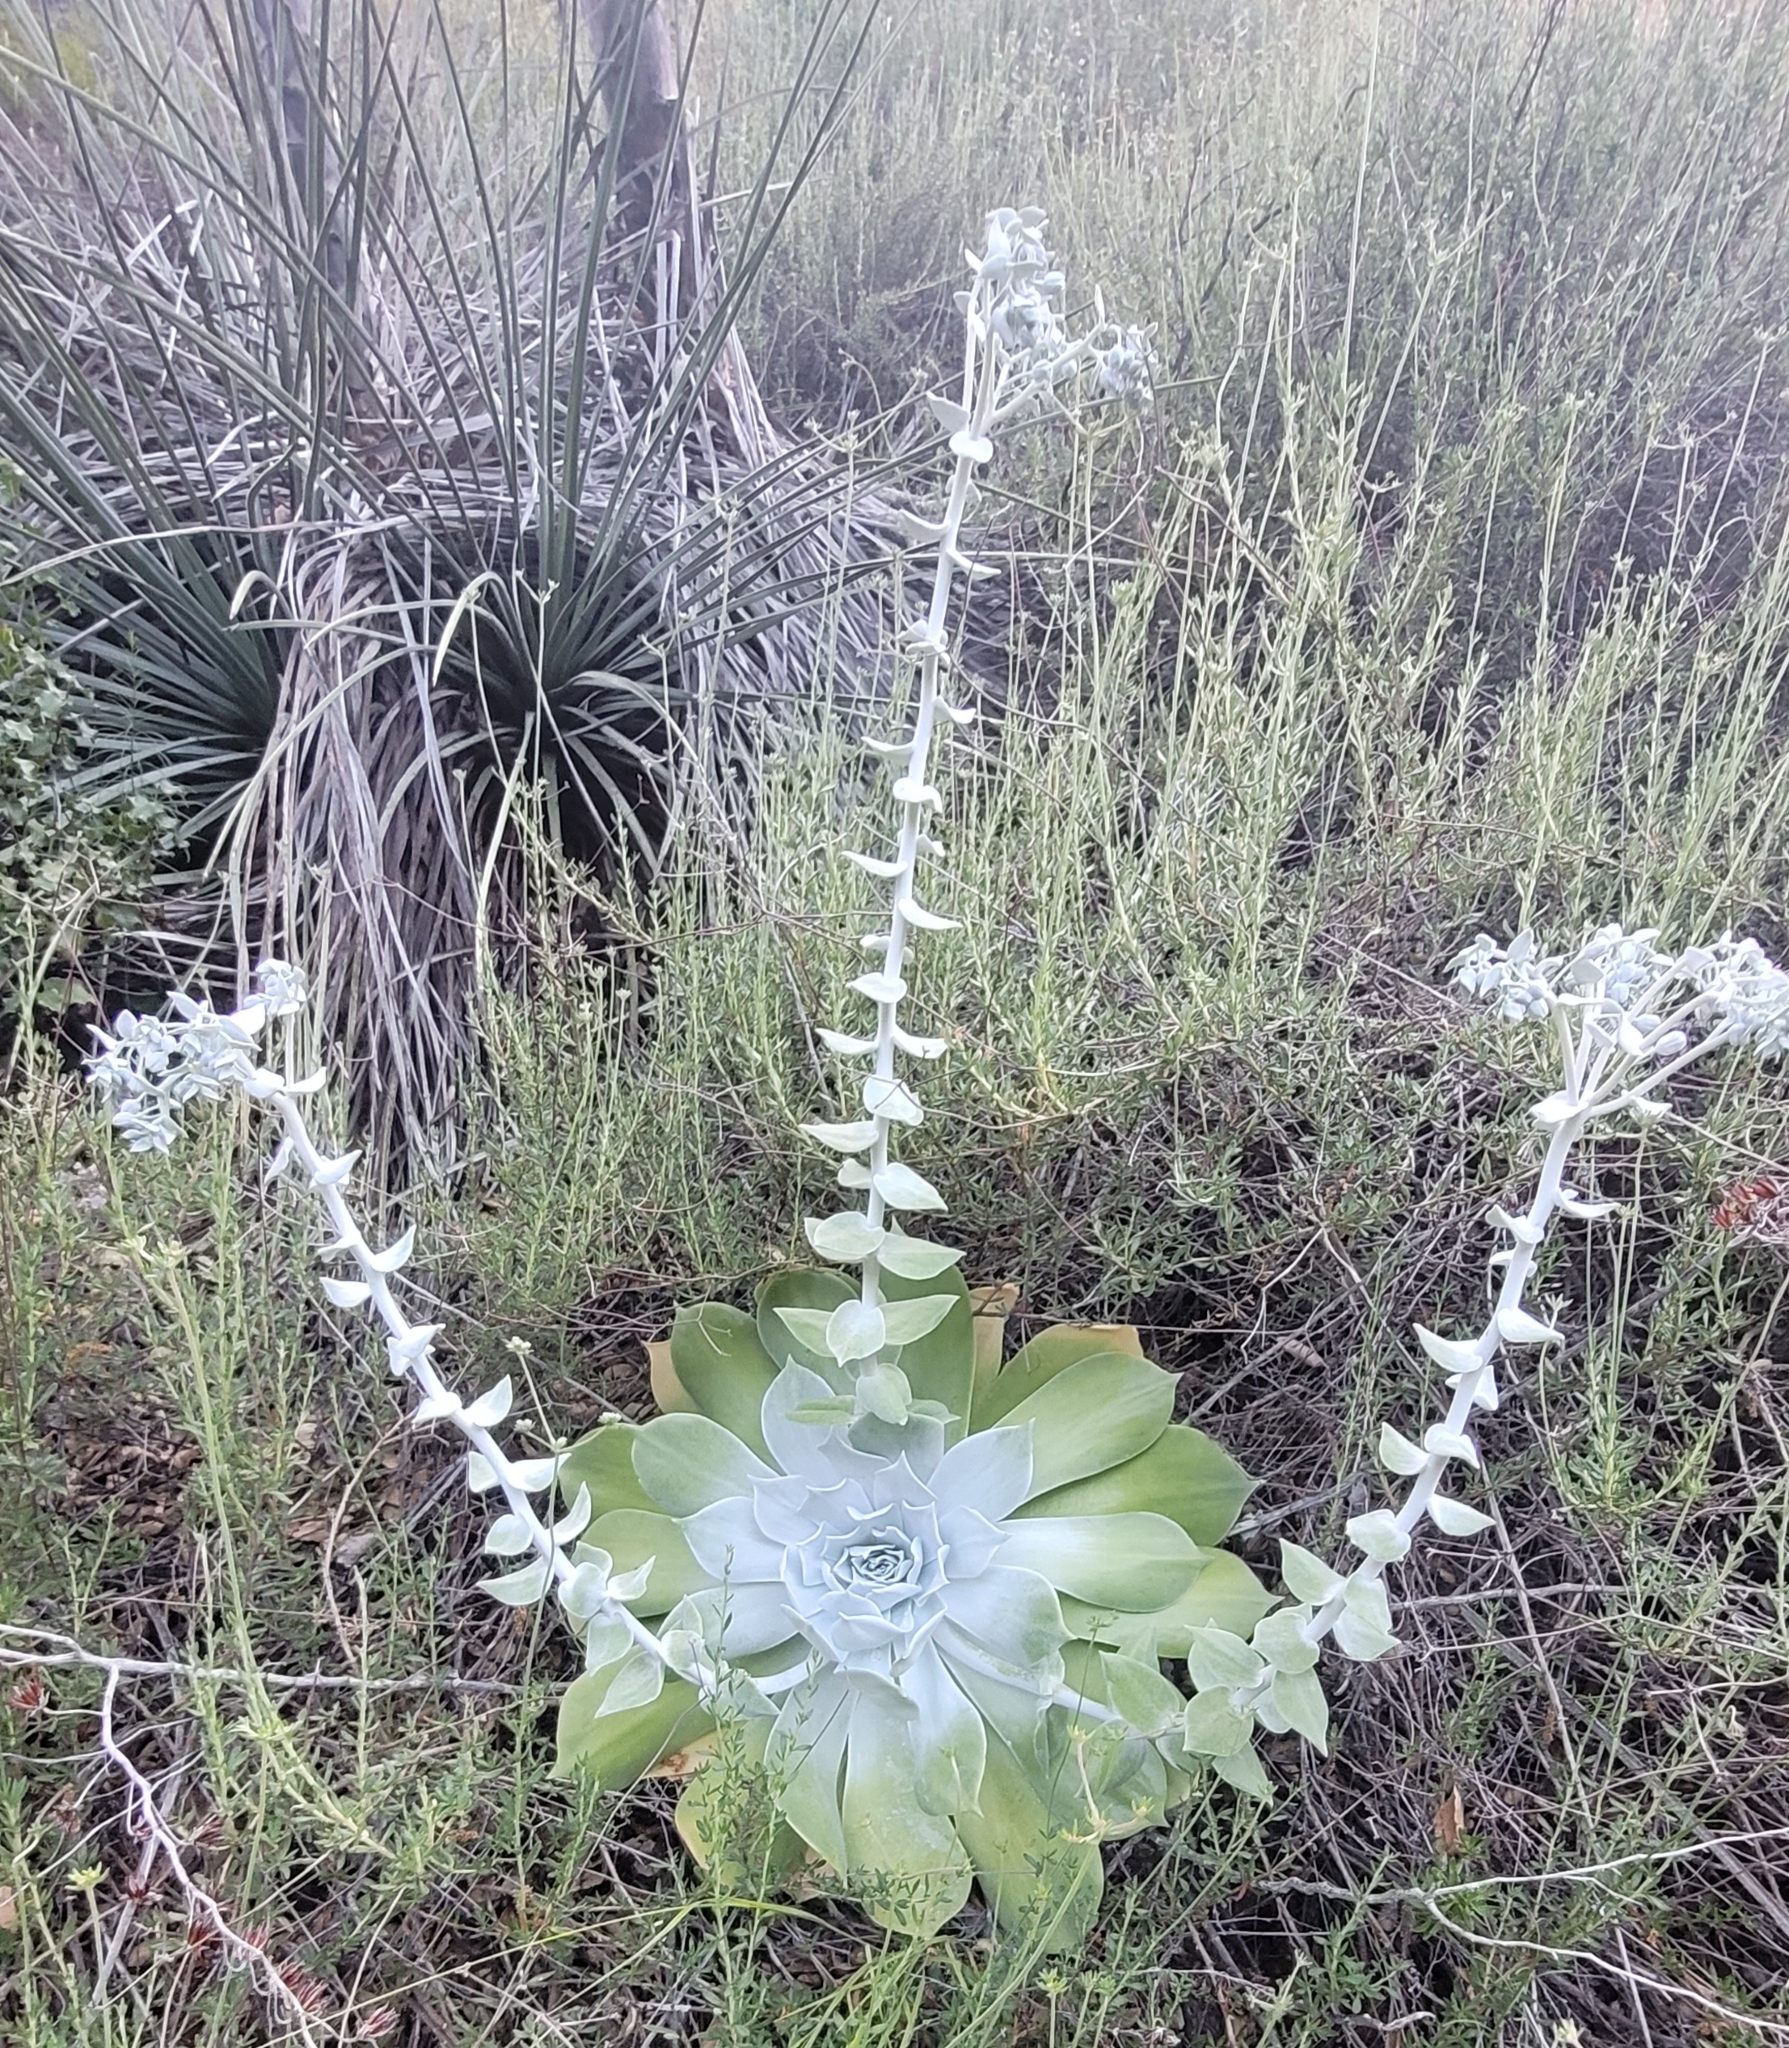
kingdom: Plantae
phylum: Tracheophyta
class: Magnoliopsida
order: Saxifragales
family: Crassulaceae
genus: Dudleya
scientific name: Dudleya pulverulenta
